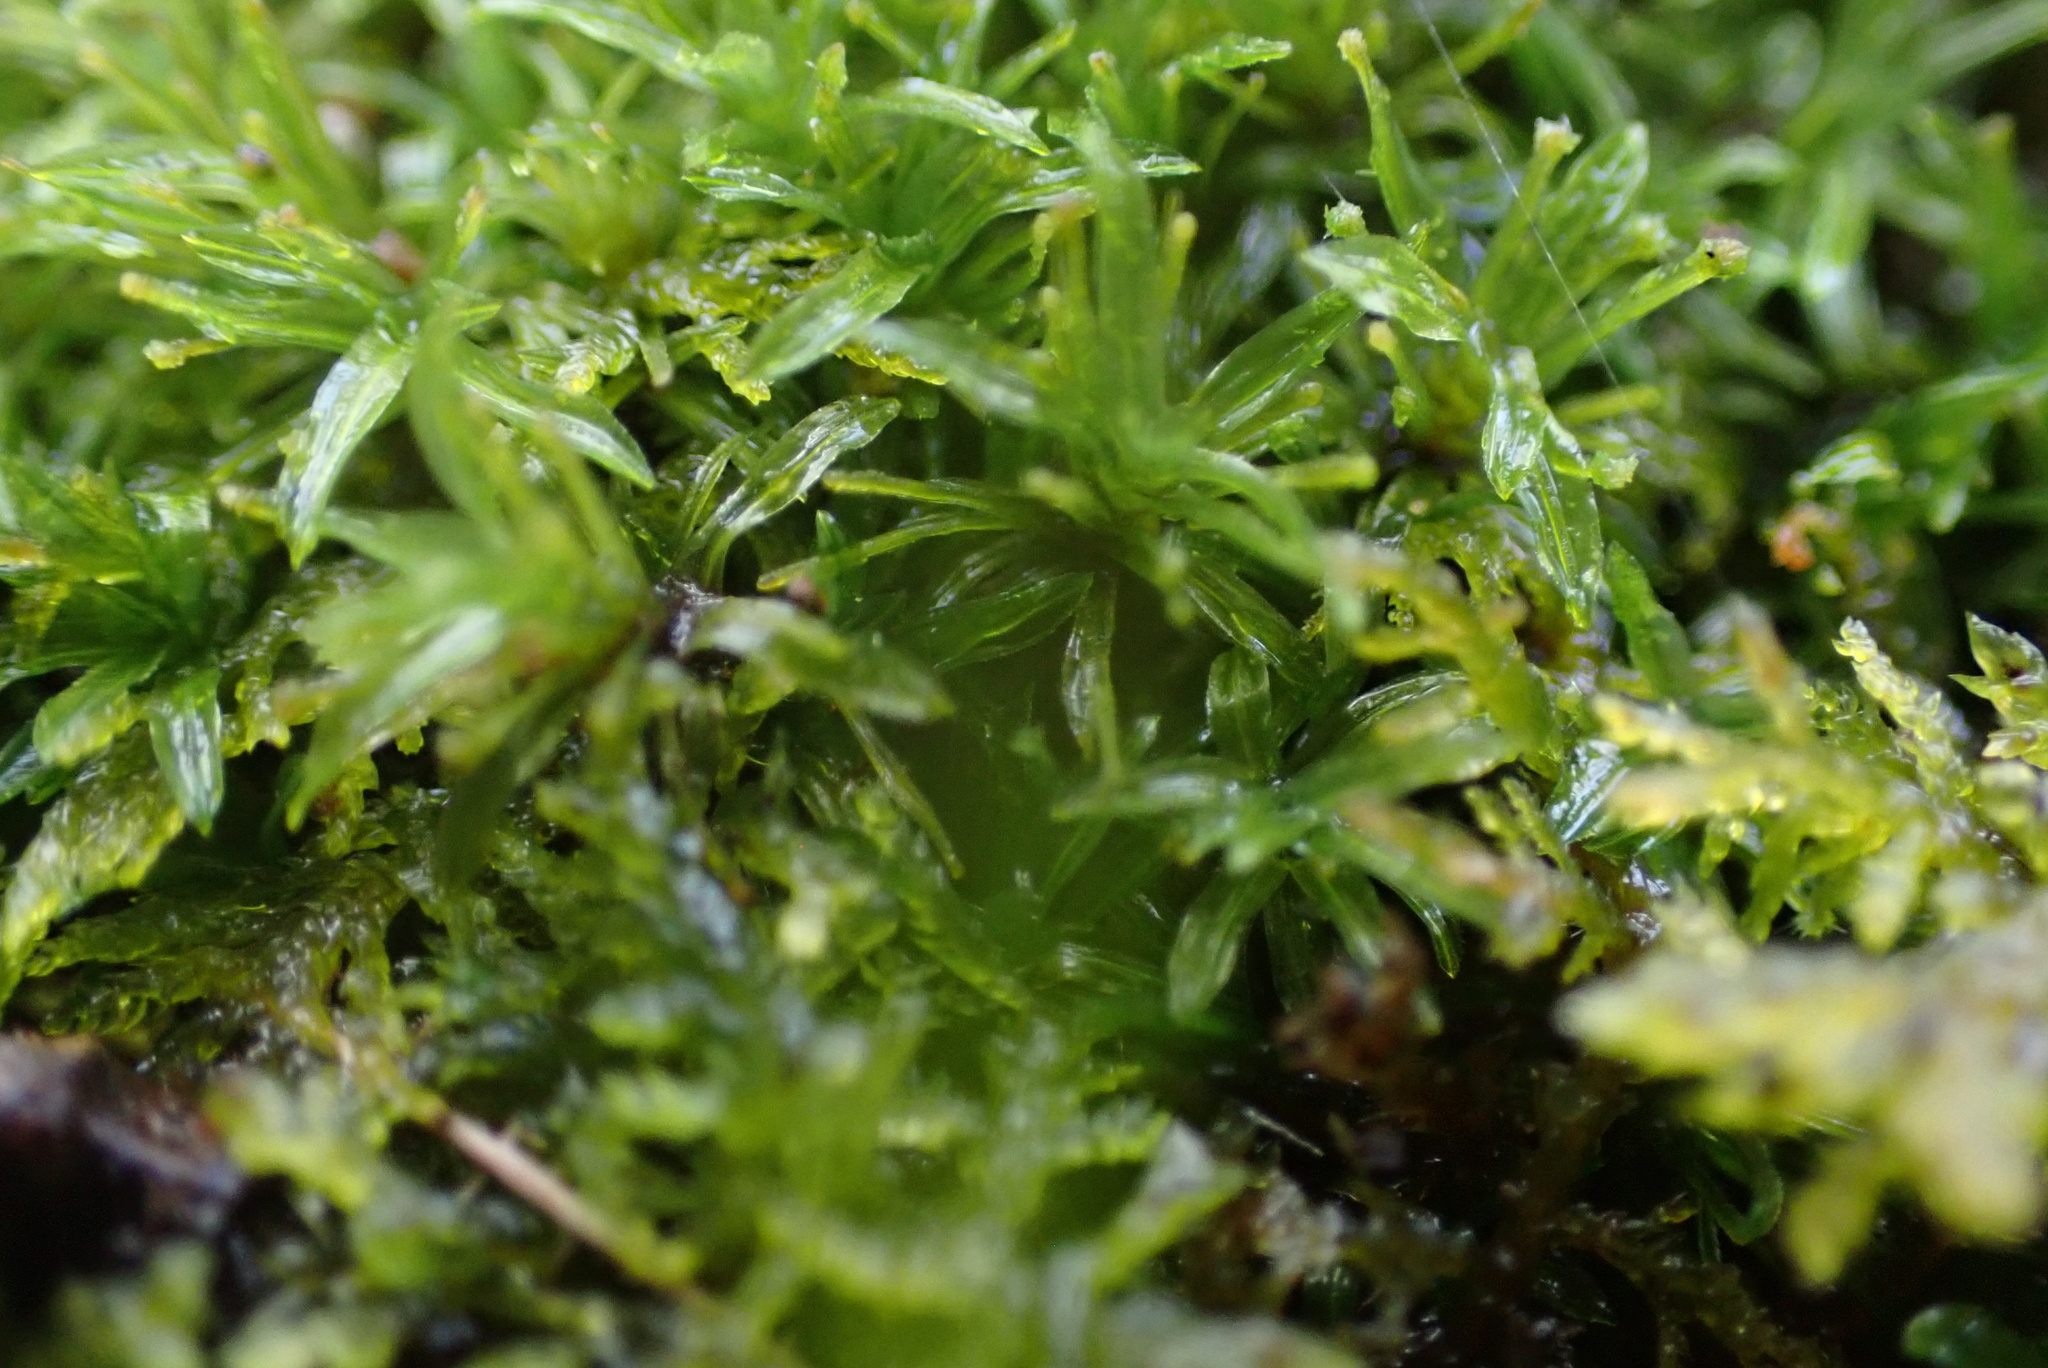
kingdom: Plantae
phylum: Bryophyta
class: Bryopsida
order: Dicranales
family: Calymperaceae
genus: Syrrhopodon
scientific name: Syrrhopodon texanus
